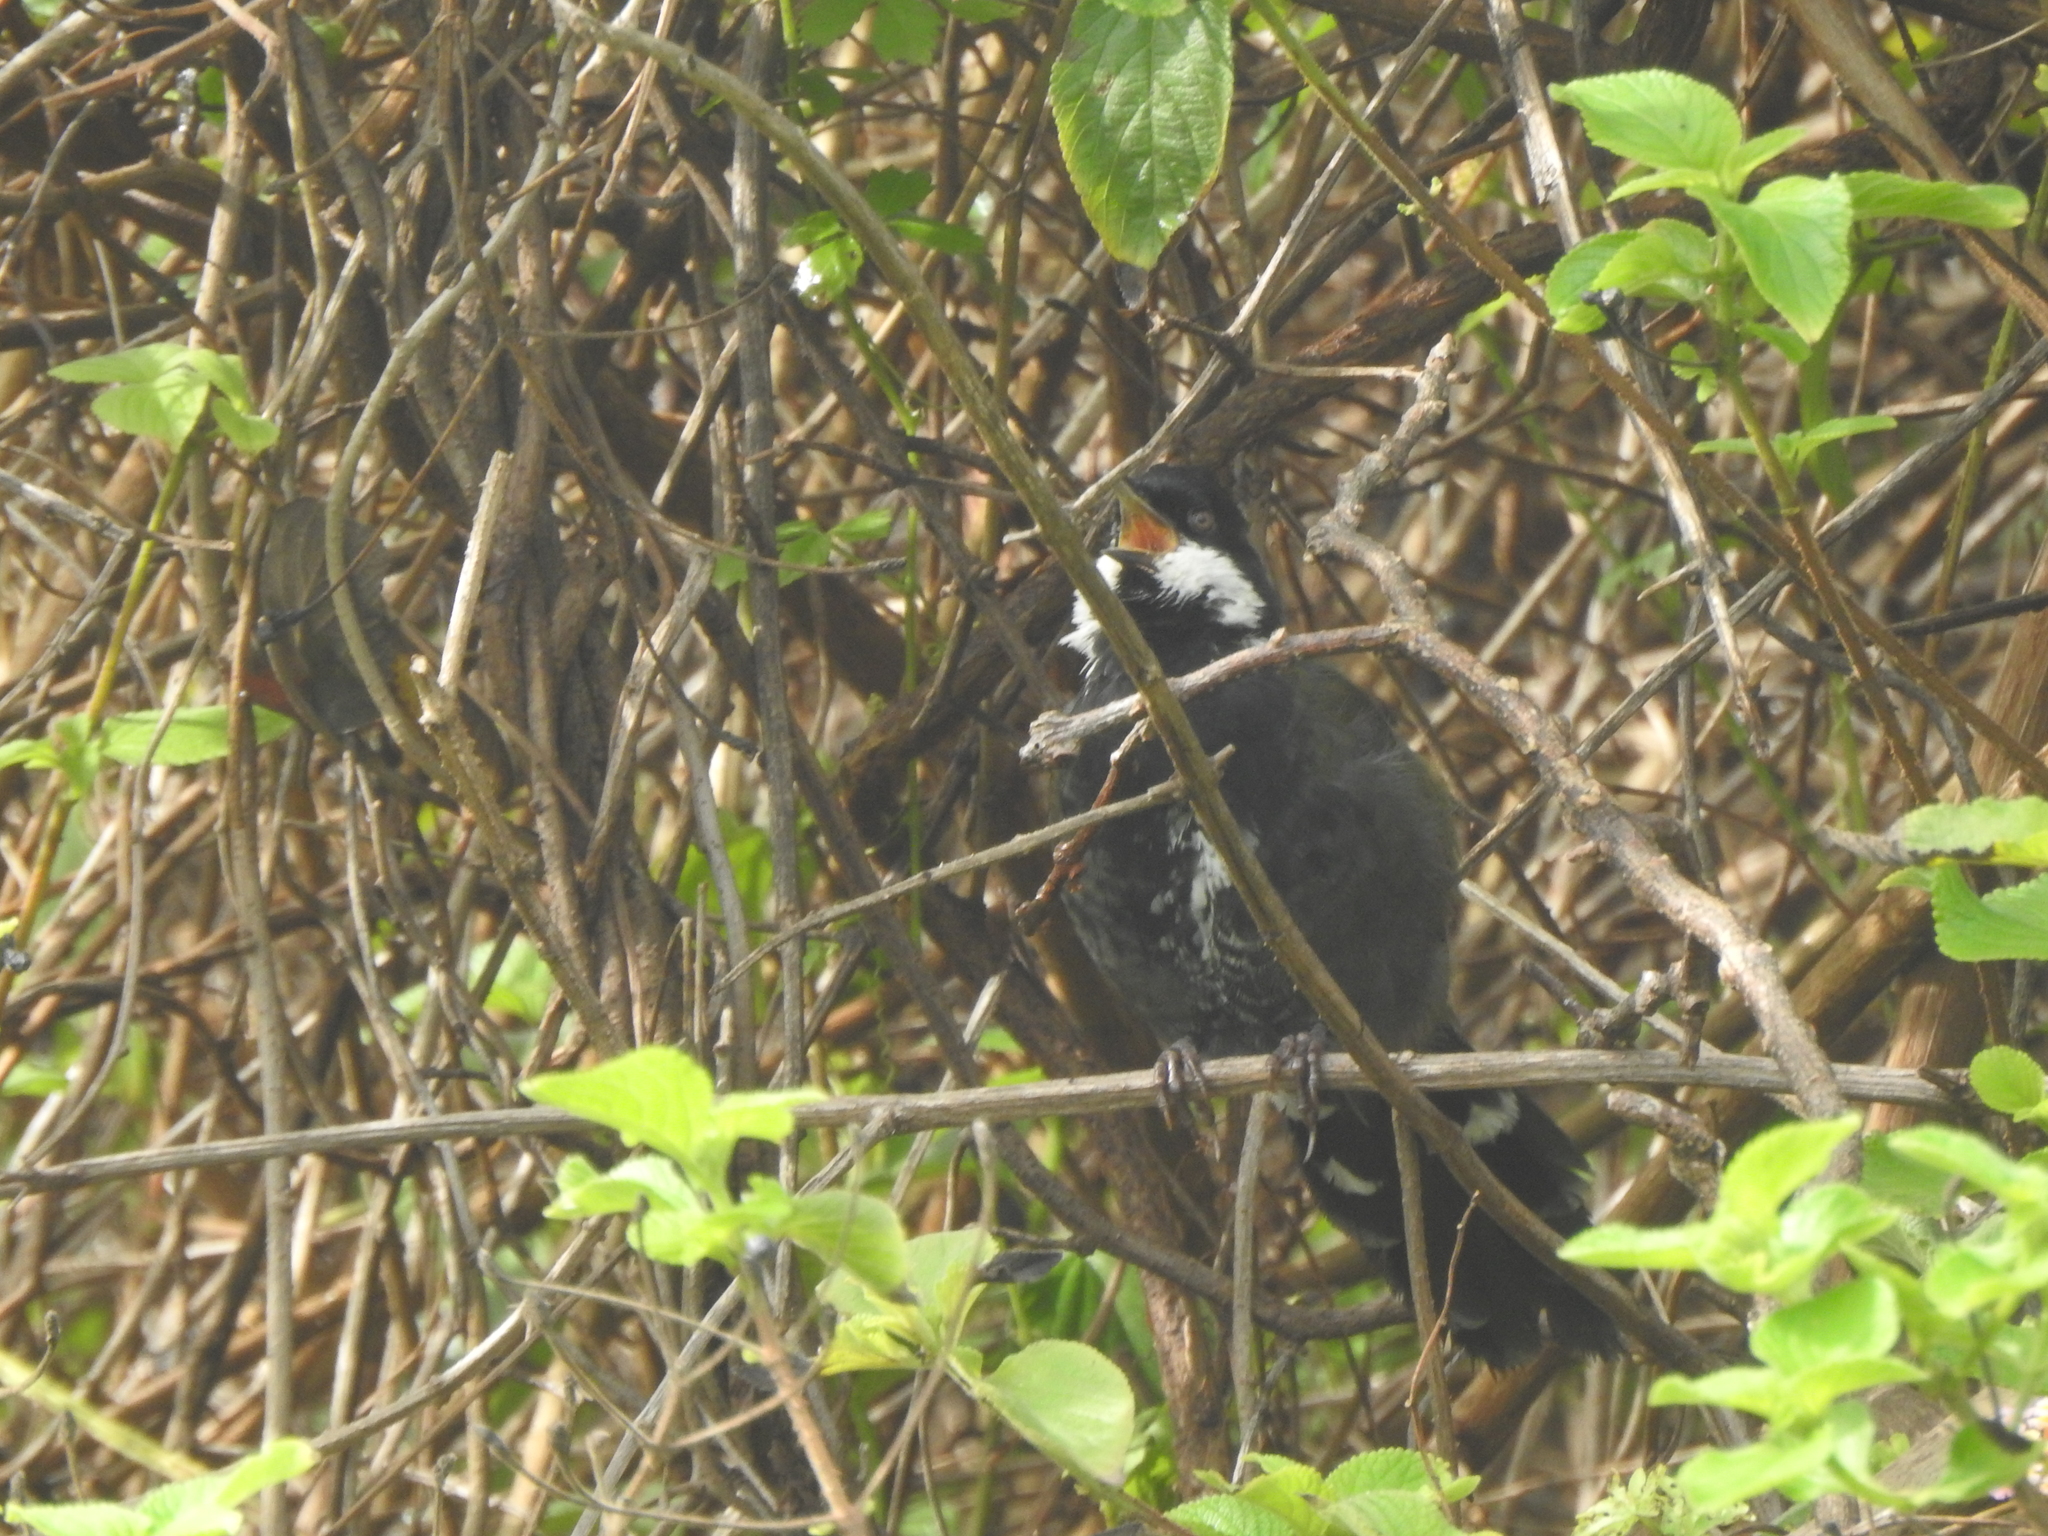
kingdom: Animalia
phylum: Chordata
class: Aves
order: Passeriformes
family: Psophodidae
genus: Psophodes
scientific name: Psophodes olivaceus
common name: Eastern whipbird
